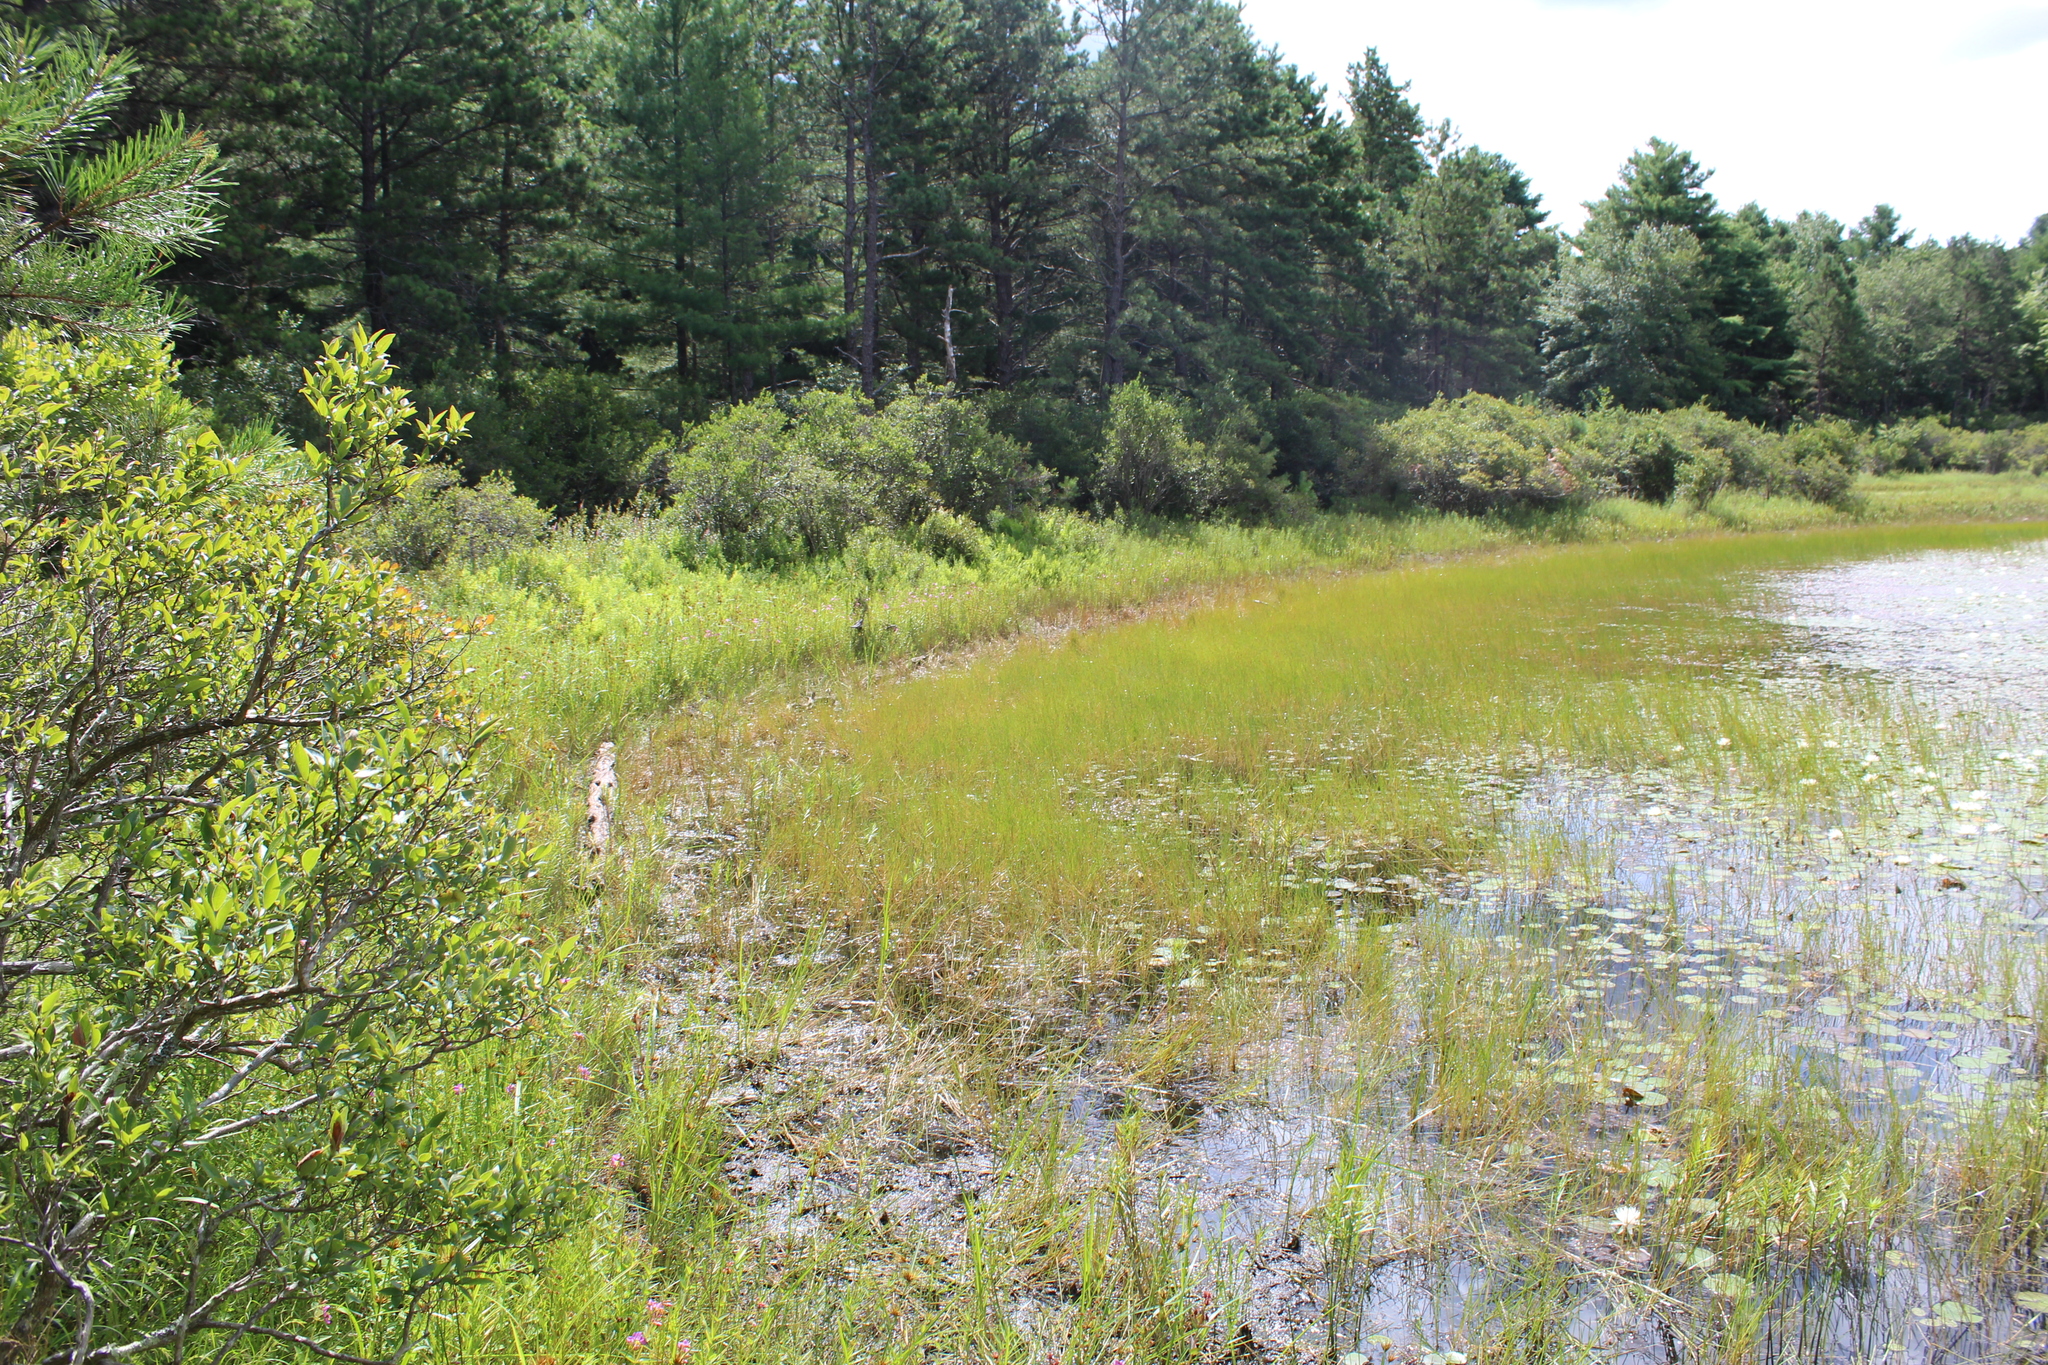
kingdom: Plantae
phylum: Tracheophyta
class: Liliopsida
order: Poales
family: Cyperaceae
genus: Eleocharis
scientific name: Eleocharis robbinsii
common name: Robbins' spikerush
